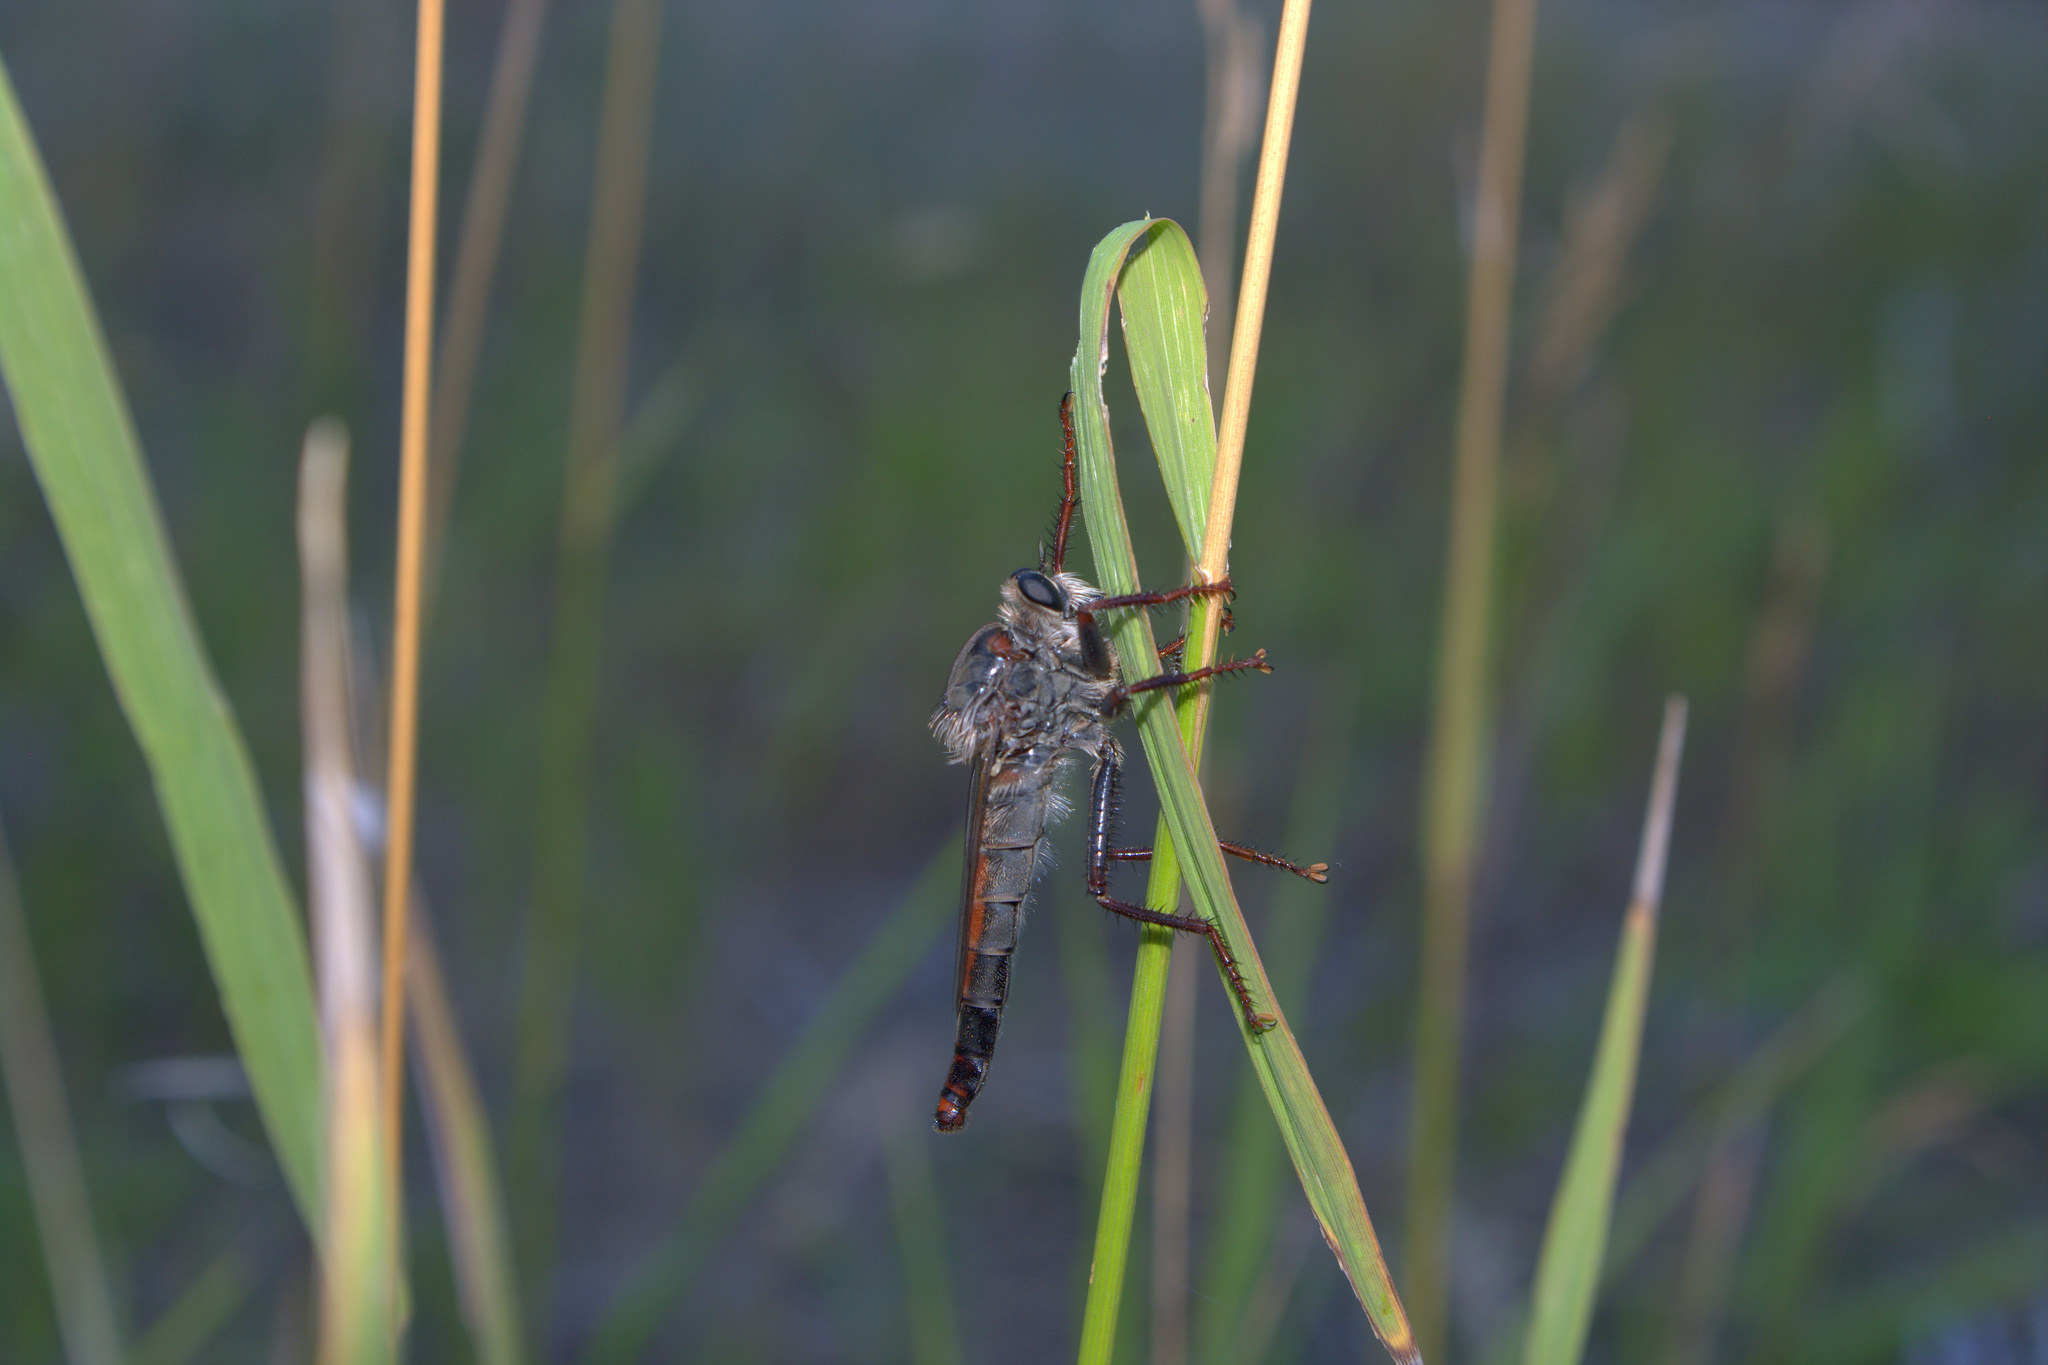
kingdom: Animalia
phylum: Arthropoda
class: Insecta
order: Diptera
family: Asilidae
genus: Stenopogon
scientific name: Stenopogon inquinatus
